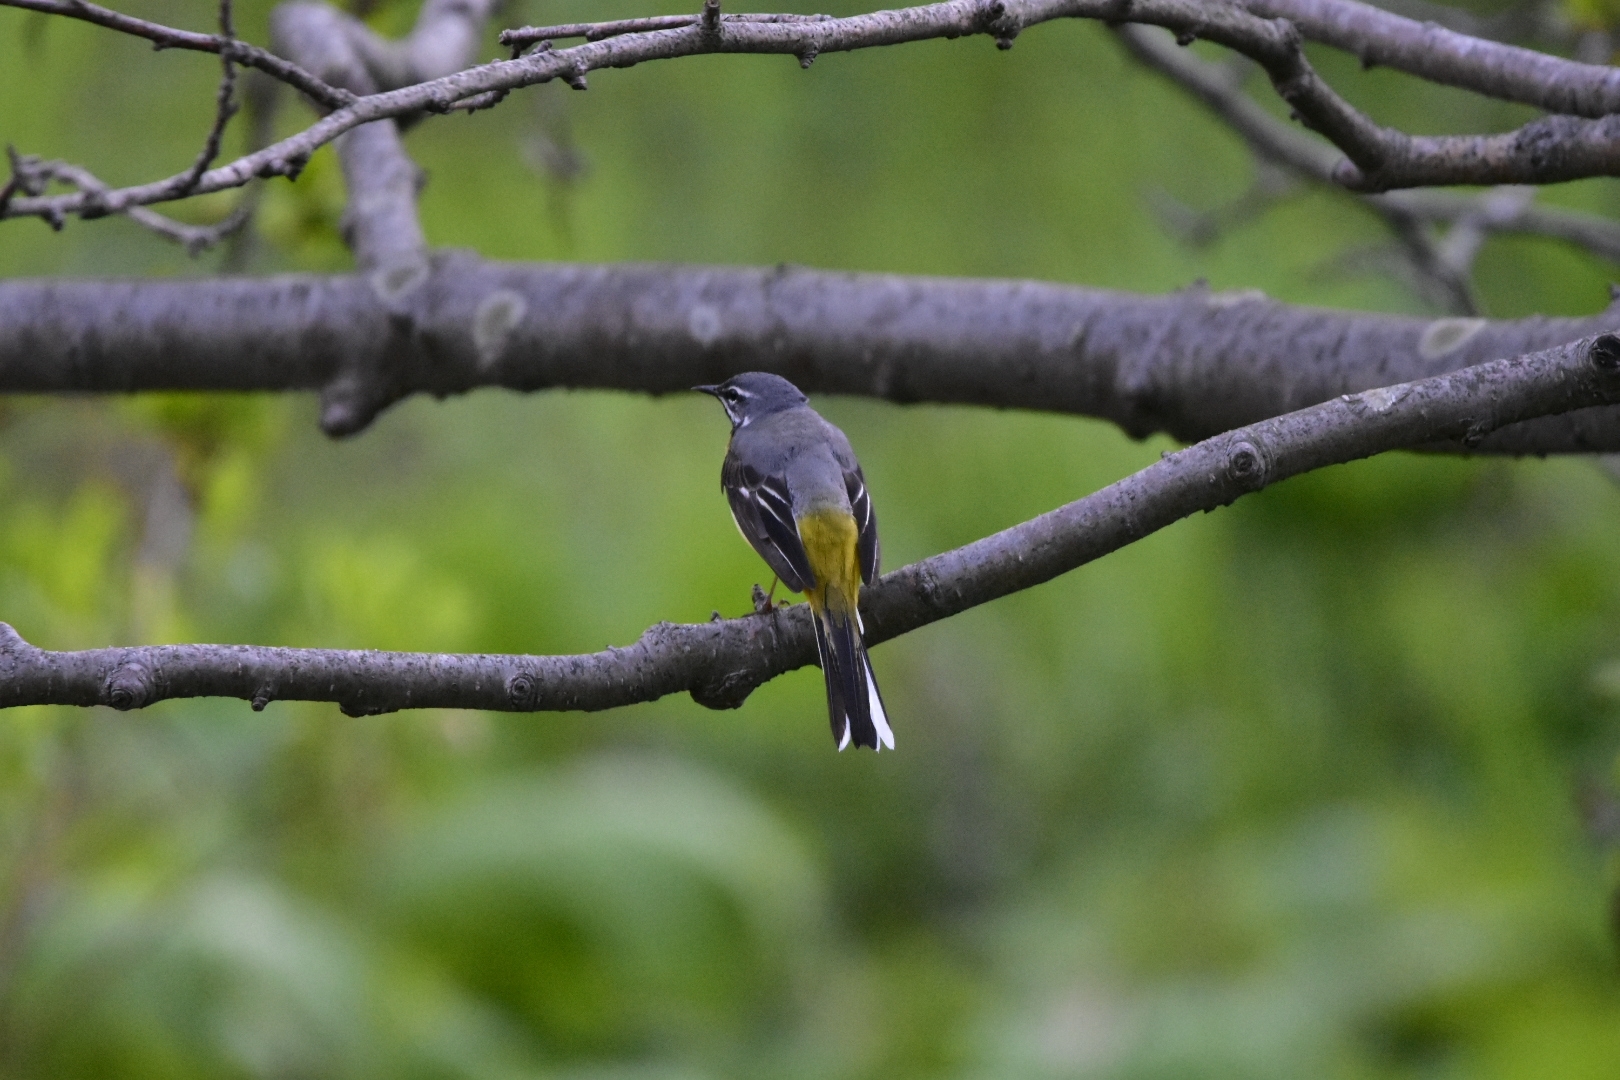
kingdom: Animalia
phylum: Chordata
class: Aves
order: Passeriformes
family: Motacillidae
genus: Motacilla
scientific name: Motacilla cinerea
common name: Grey wagtail
